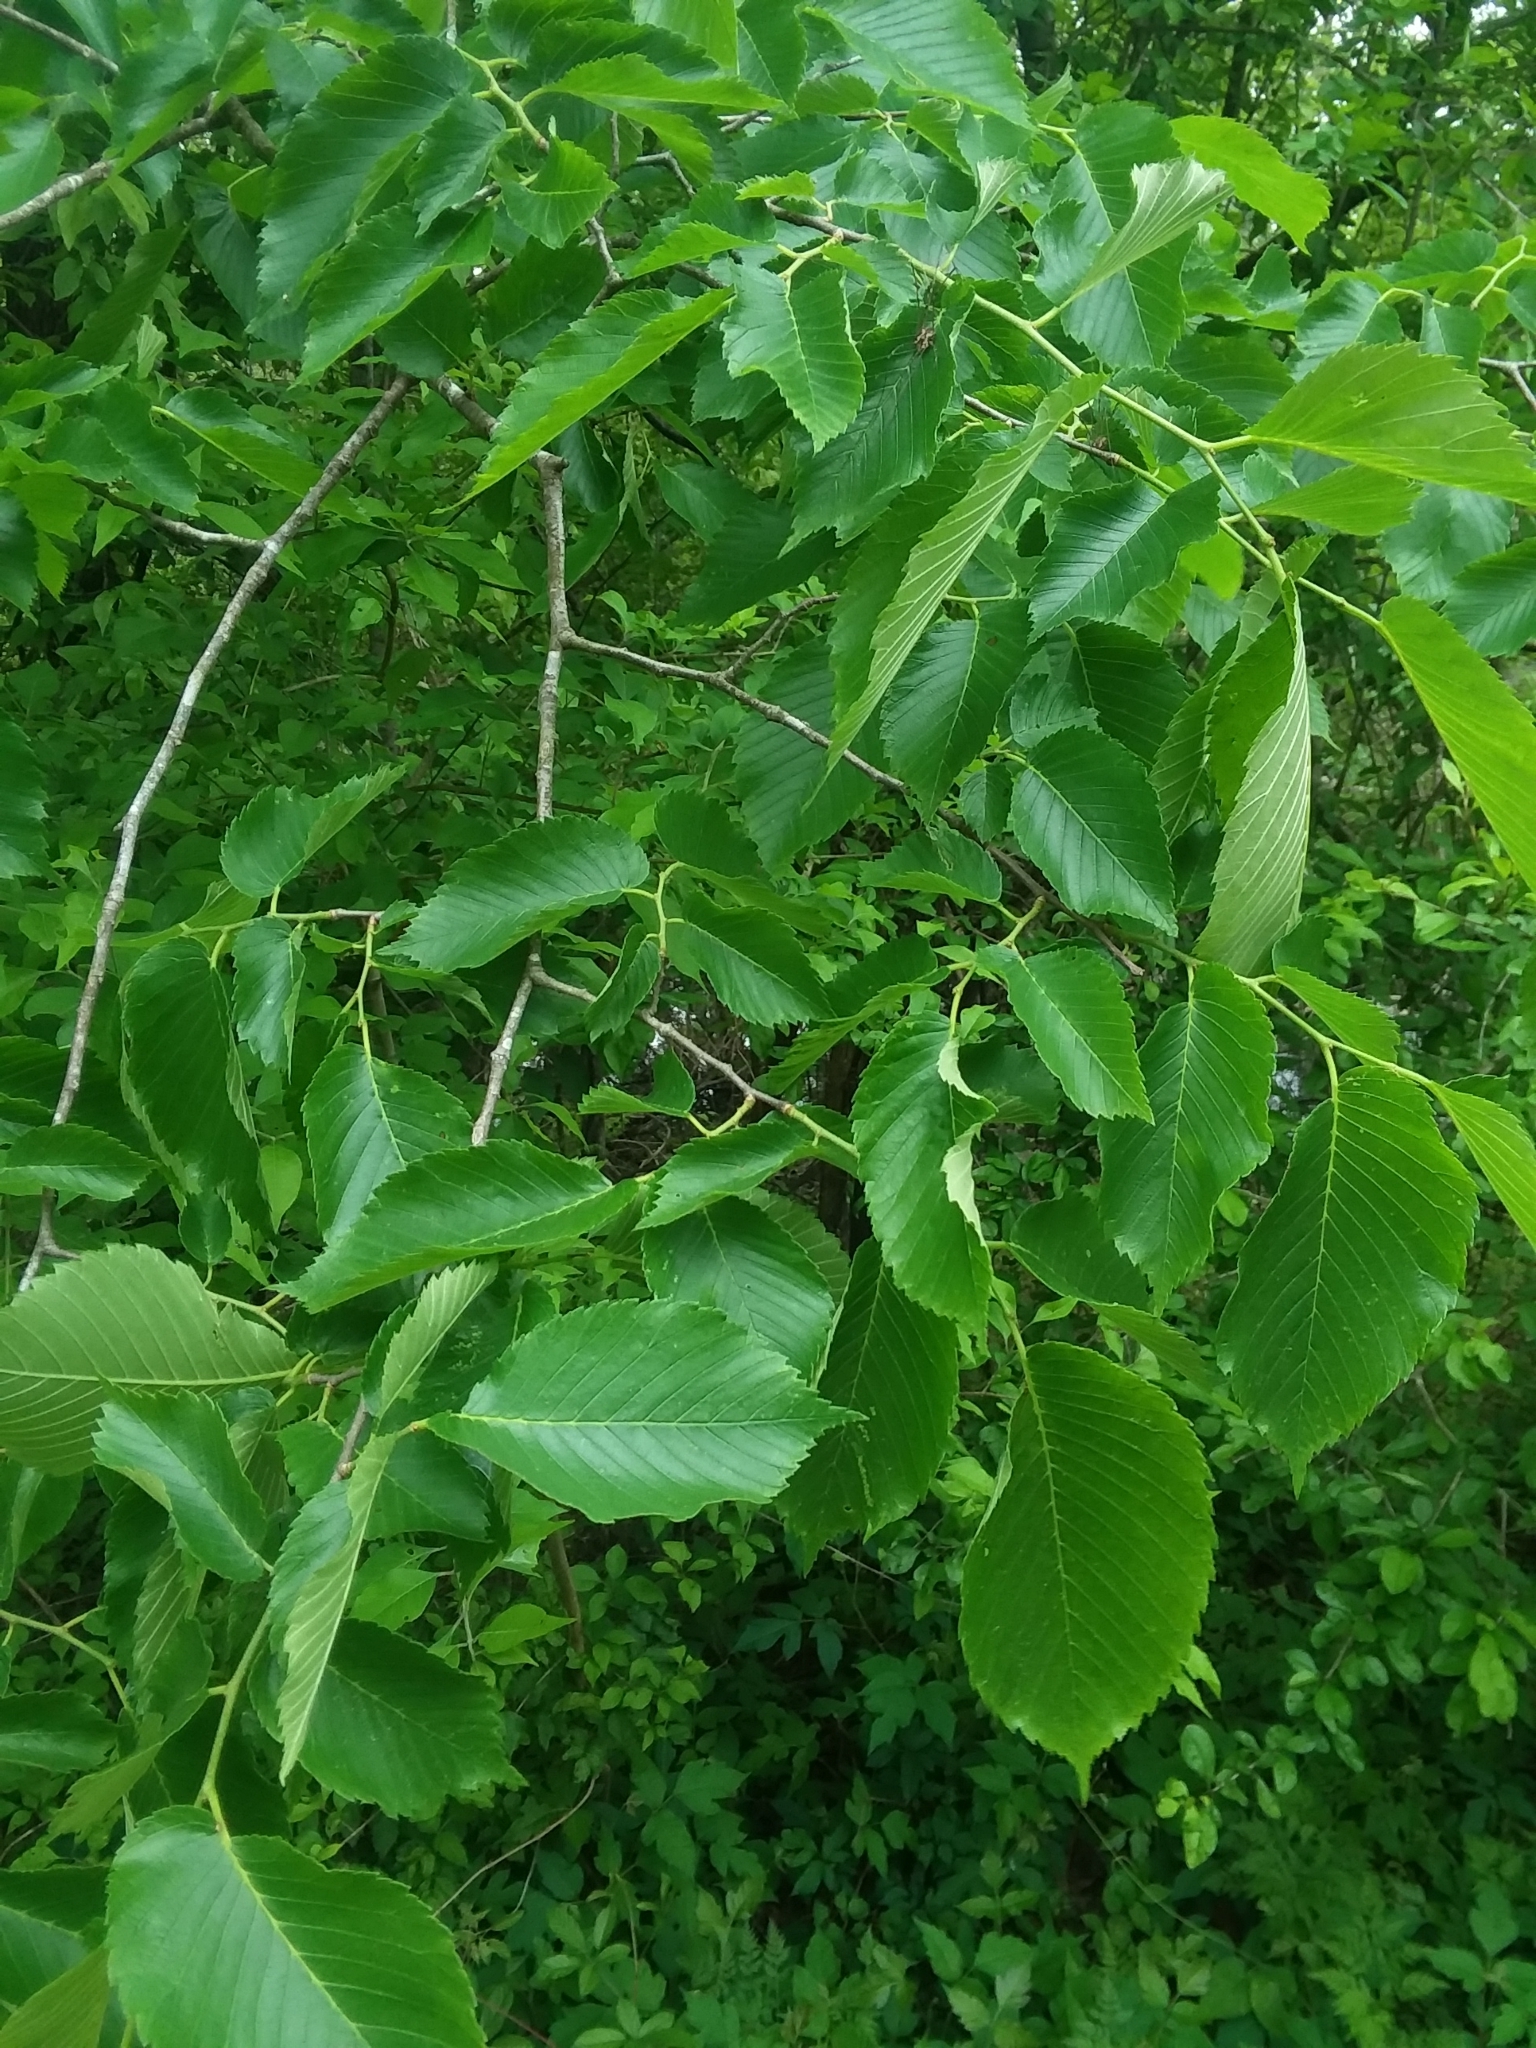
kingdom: Plantae
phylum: Tracheophyta
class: Magnoliopsida
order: Rosales
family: Ulmaceae
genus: Ulmus
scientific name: Ulmus americana
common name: American elm
